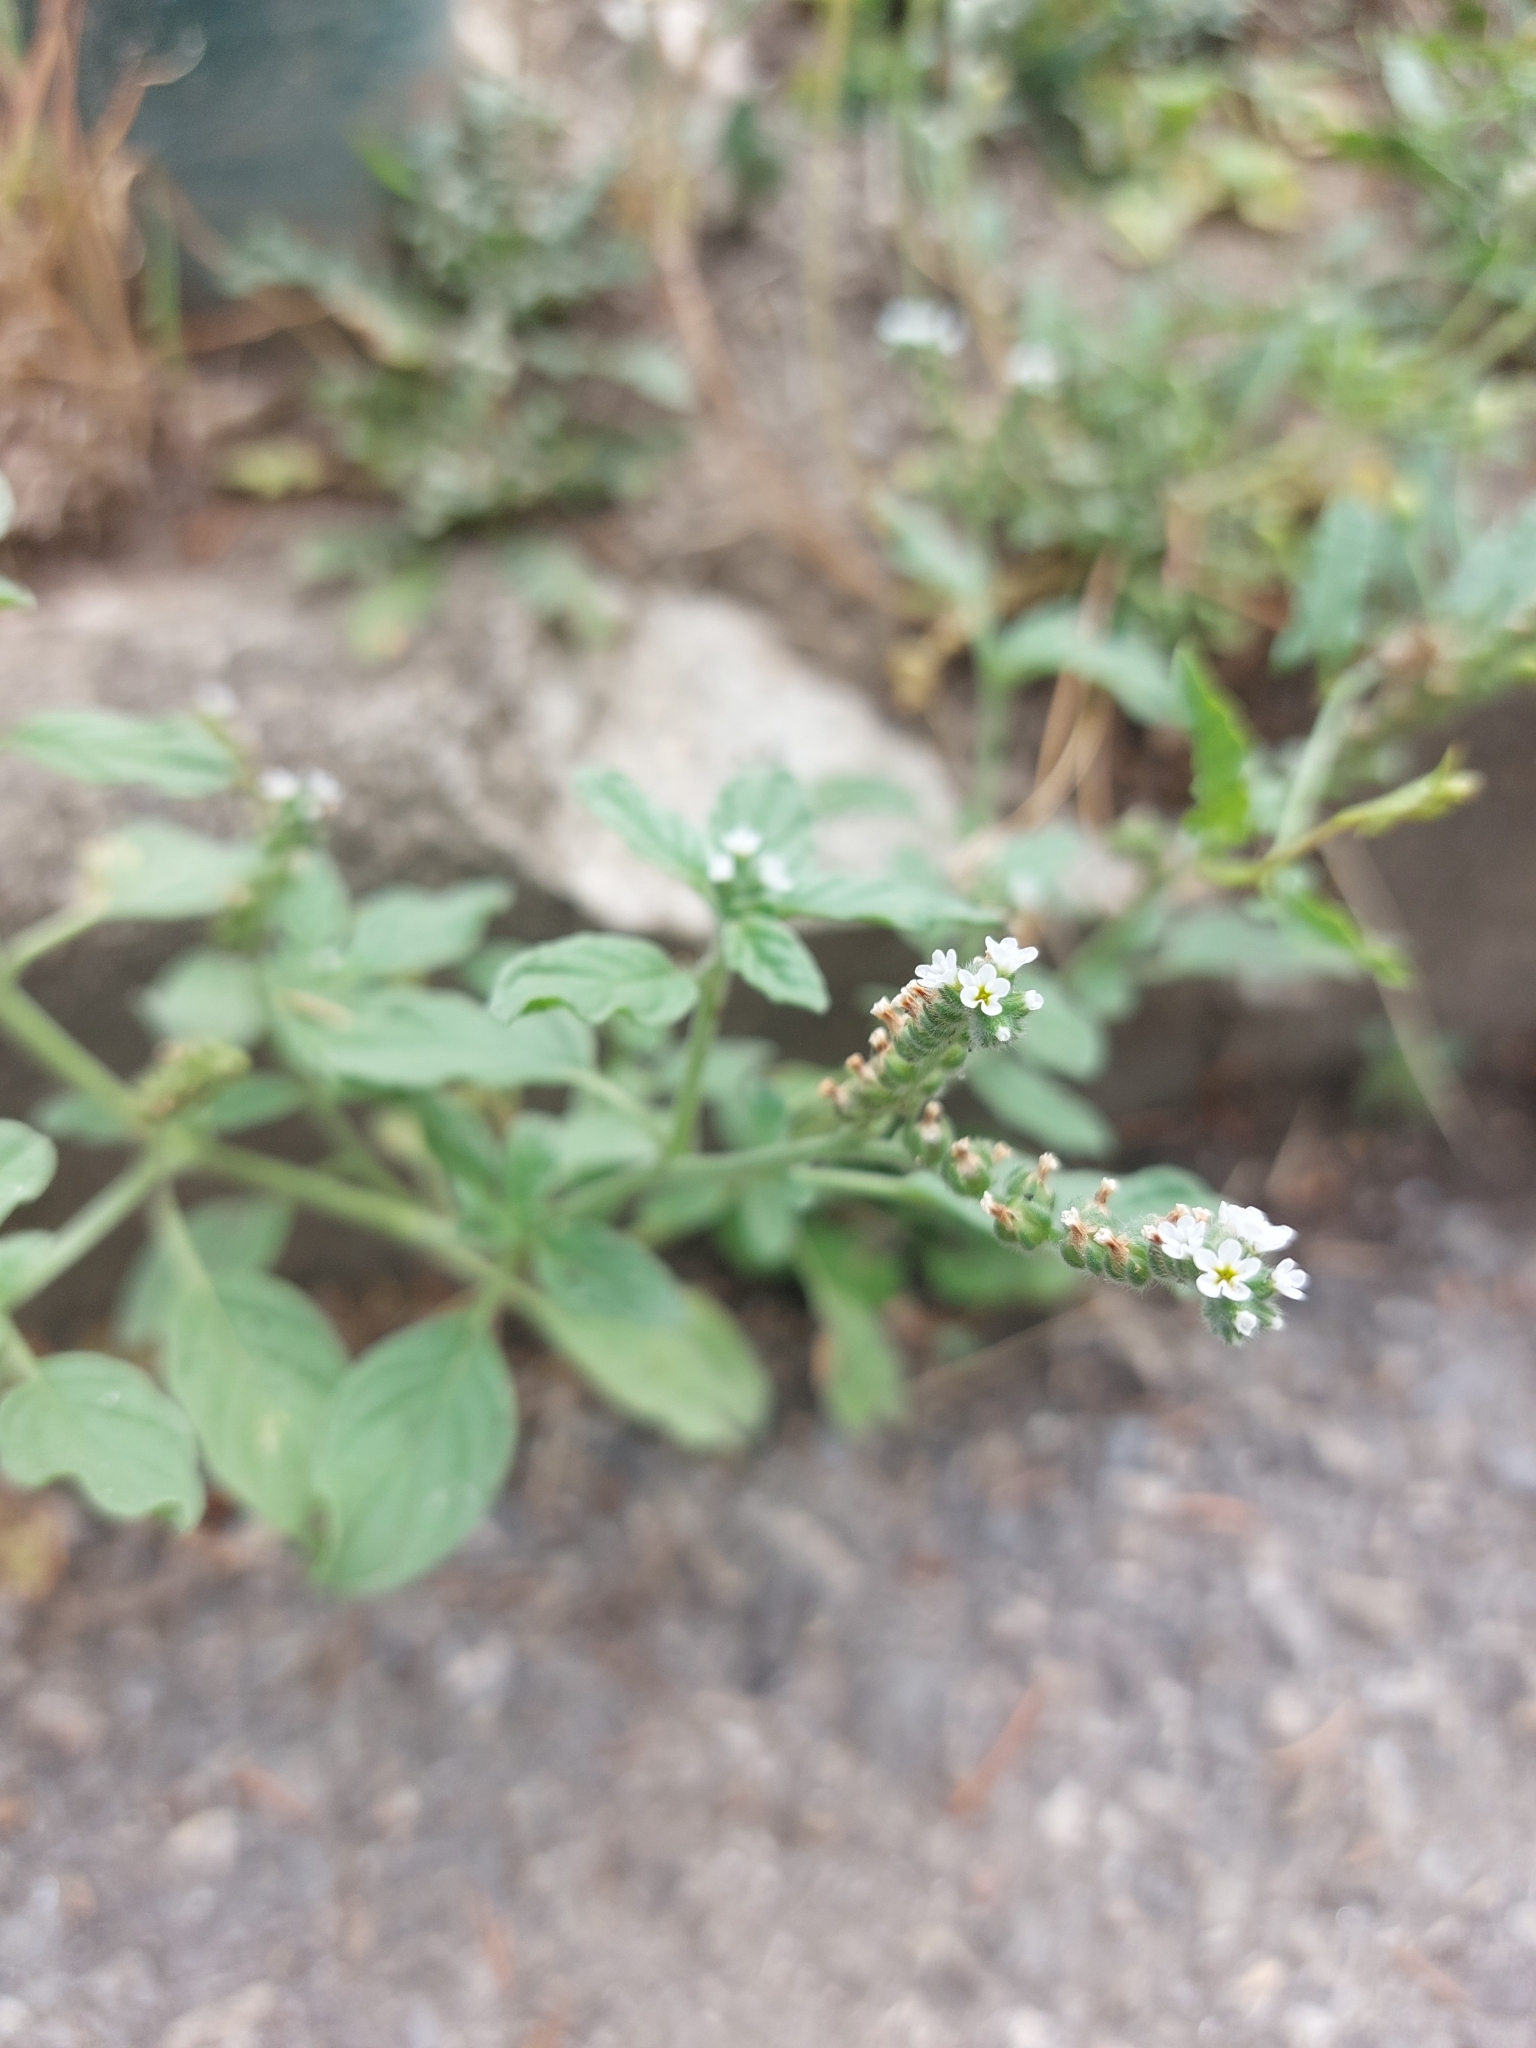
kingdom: Plantae
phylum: Tracheophyta
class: Magnoliopsida
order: Boraginales
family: Heliotropiaceae
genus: Heliotropium
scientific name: Heliotropium europaeum
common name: European heliotrope
